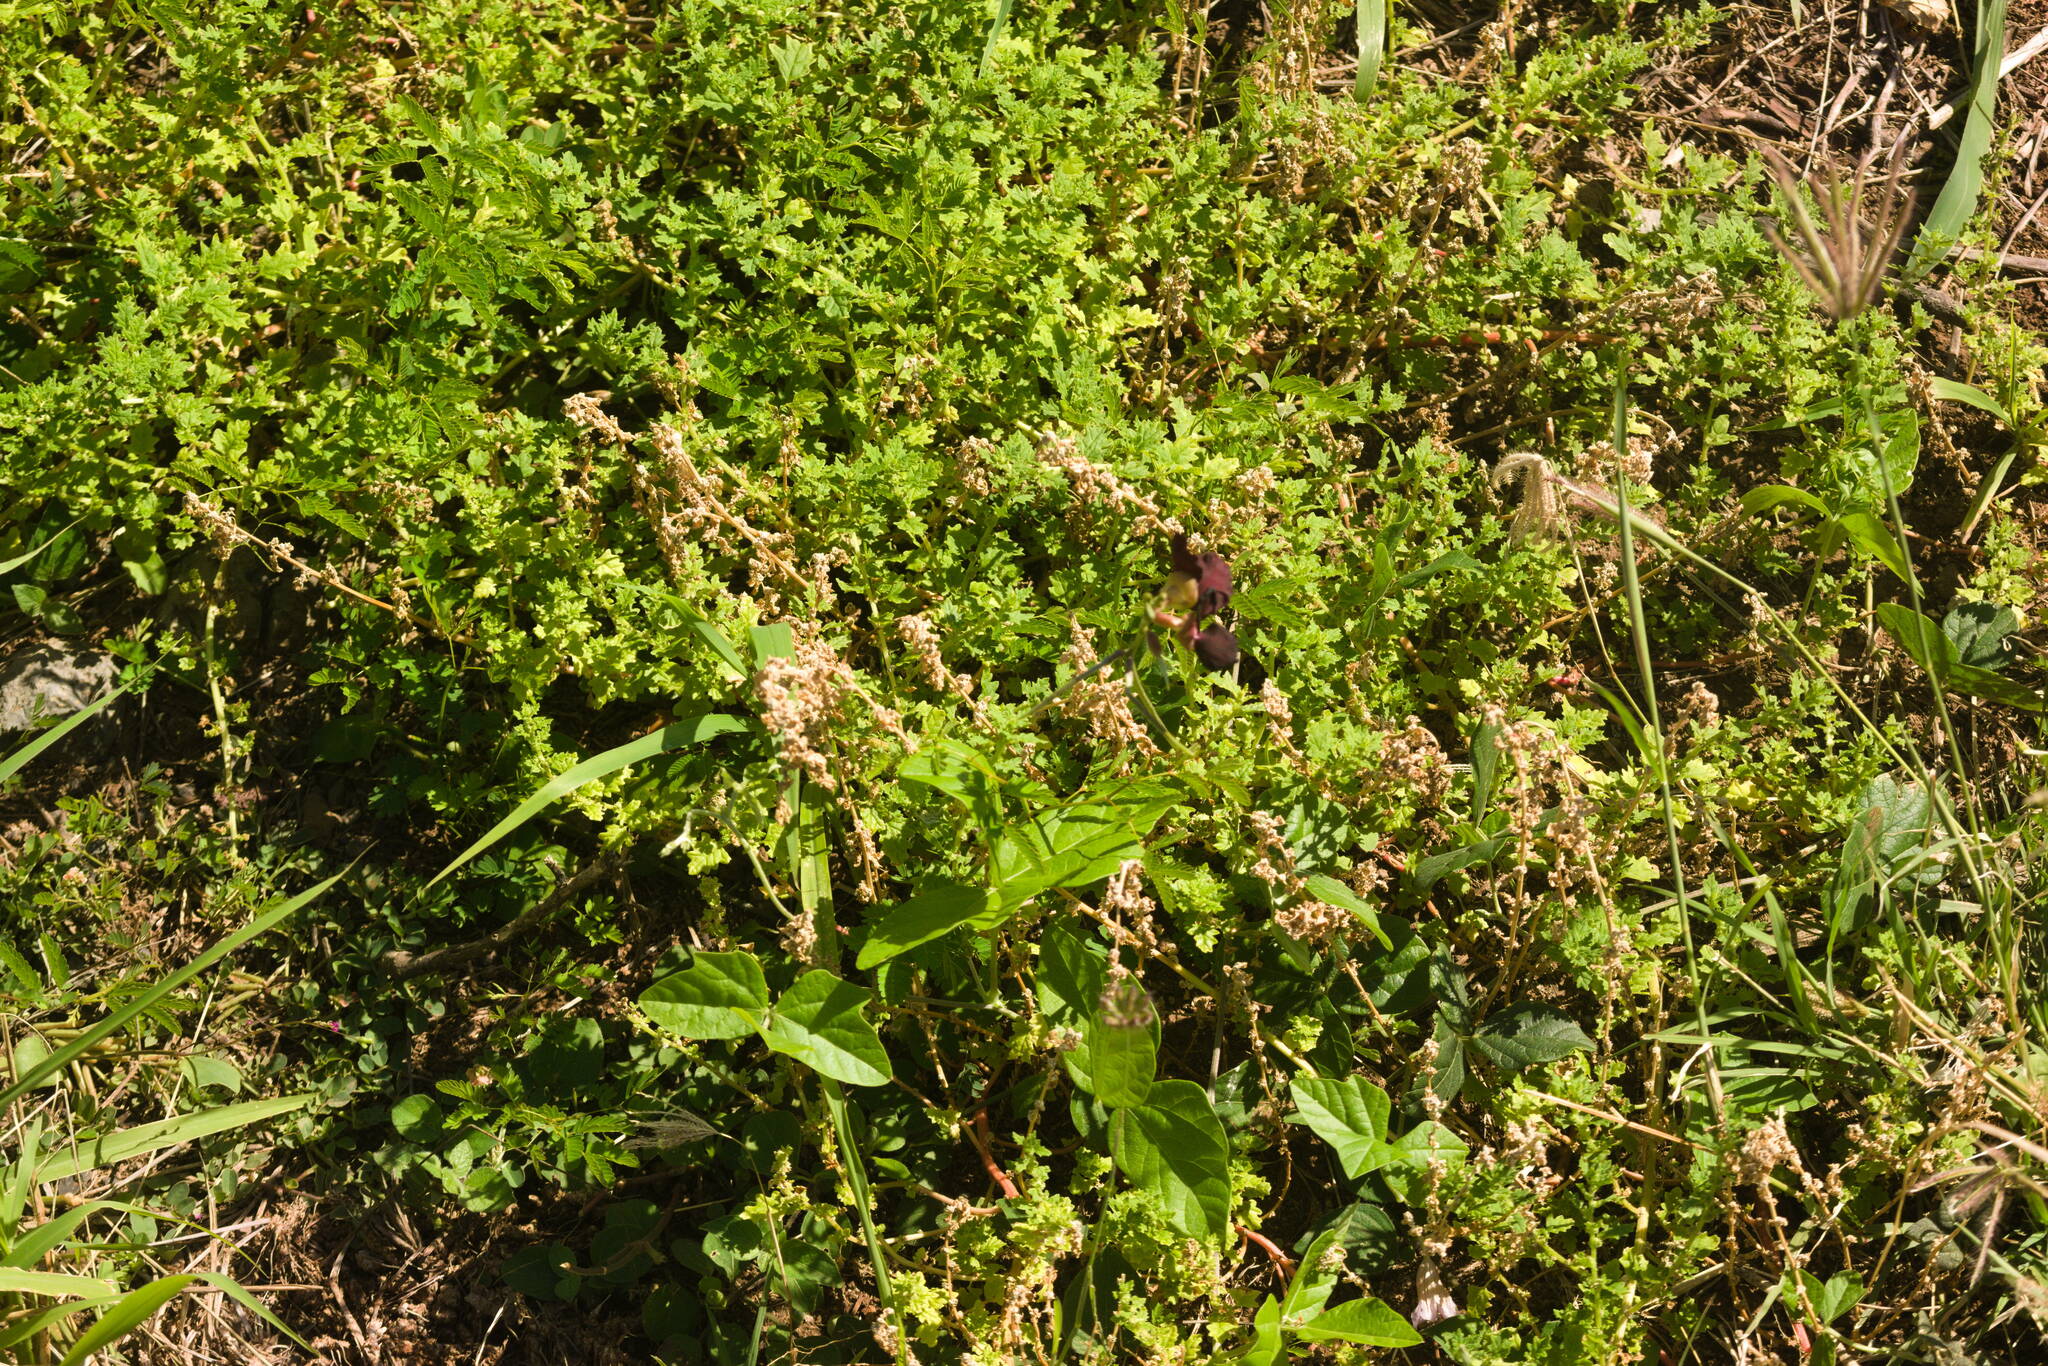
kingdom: Plantae
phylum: Tracheophyta
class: Magnoliopsida
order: Fabales
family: Fabaceae
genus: Macroptilium
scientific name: Macroptilium atropurpureum
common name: Purple bushbean
